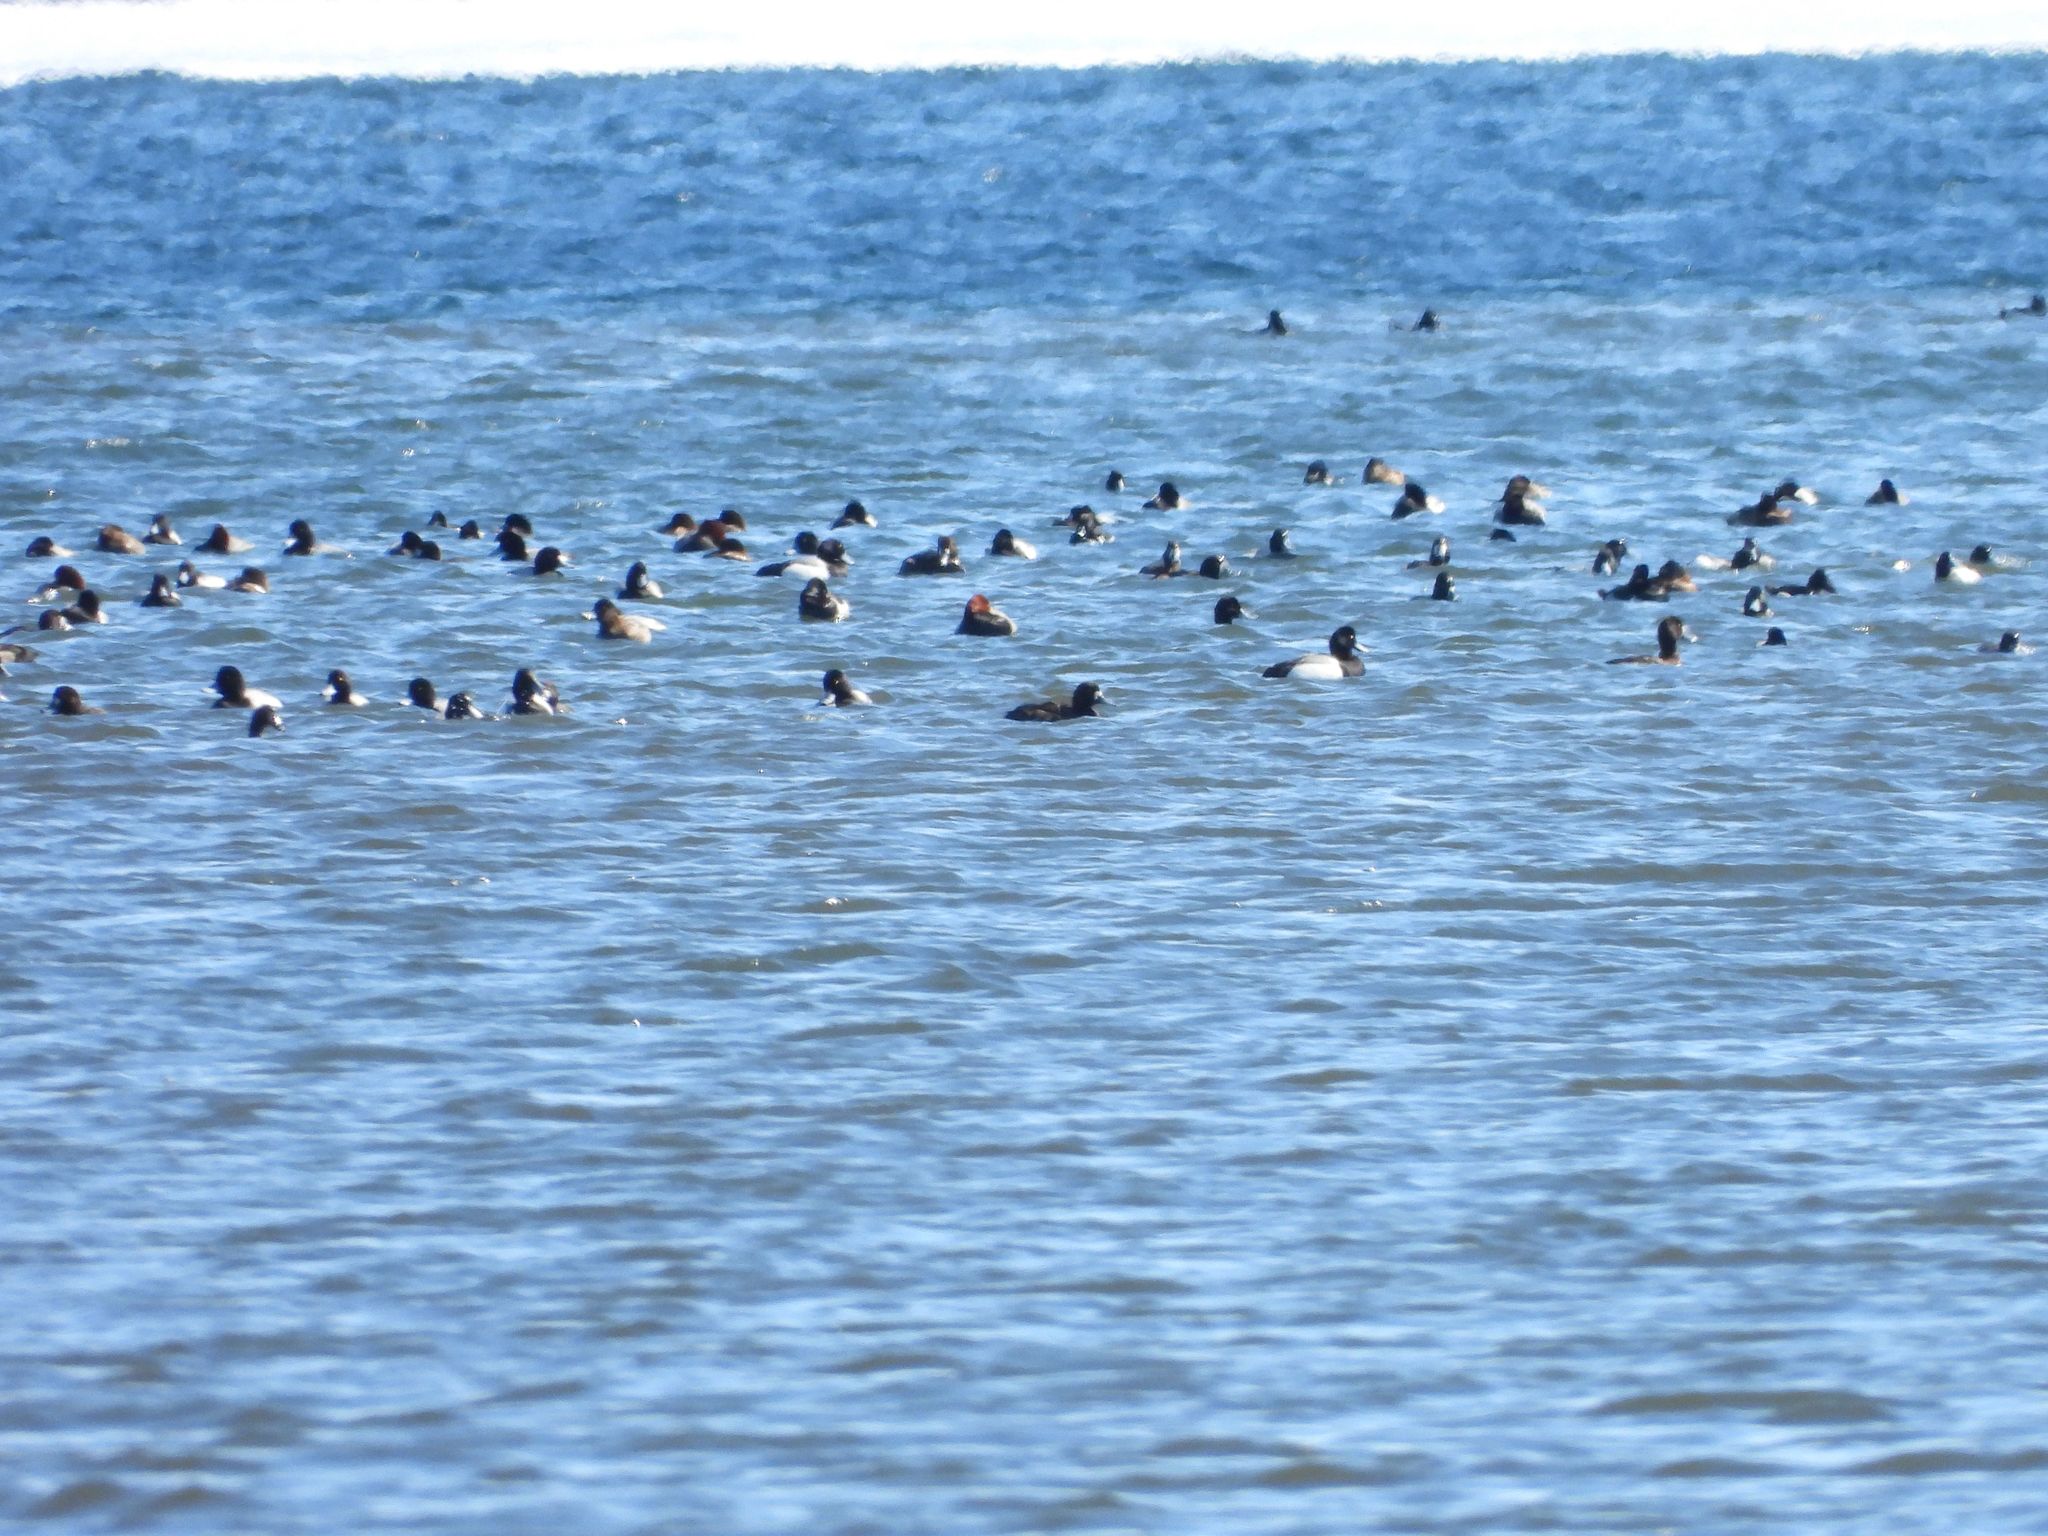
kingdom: Animalia
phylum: Chordata
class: Aves
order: Anseriformes
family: Anatidae
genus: Aythya
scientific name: Aythya marila
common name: Greater scaup
